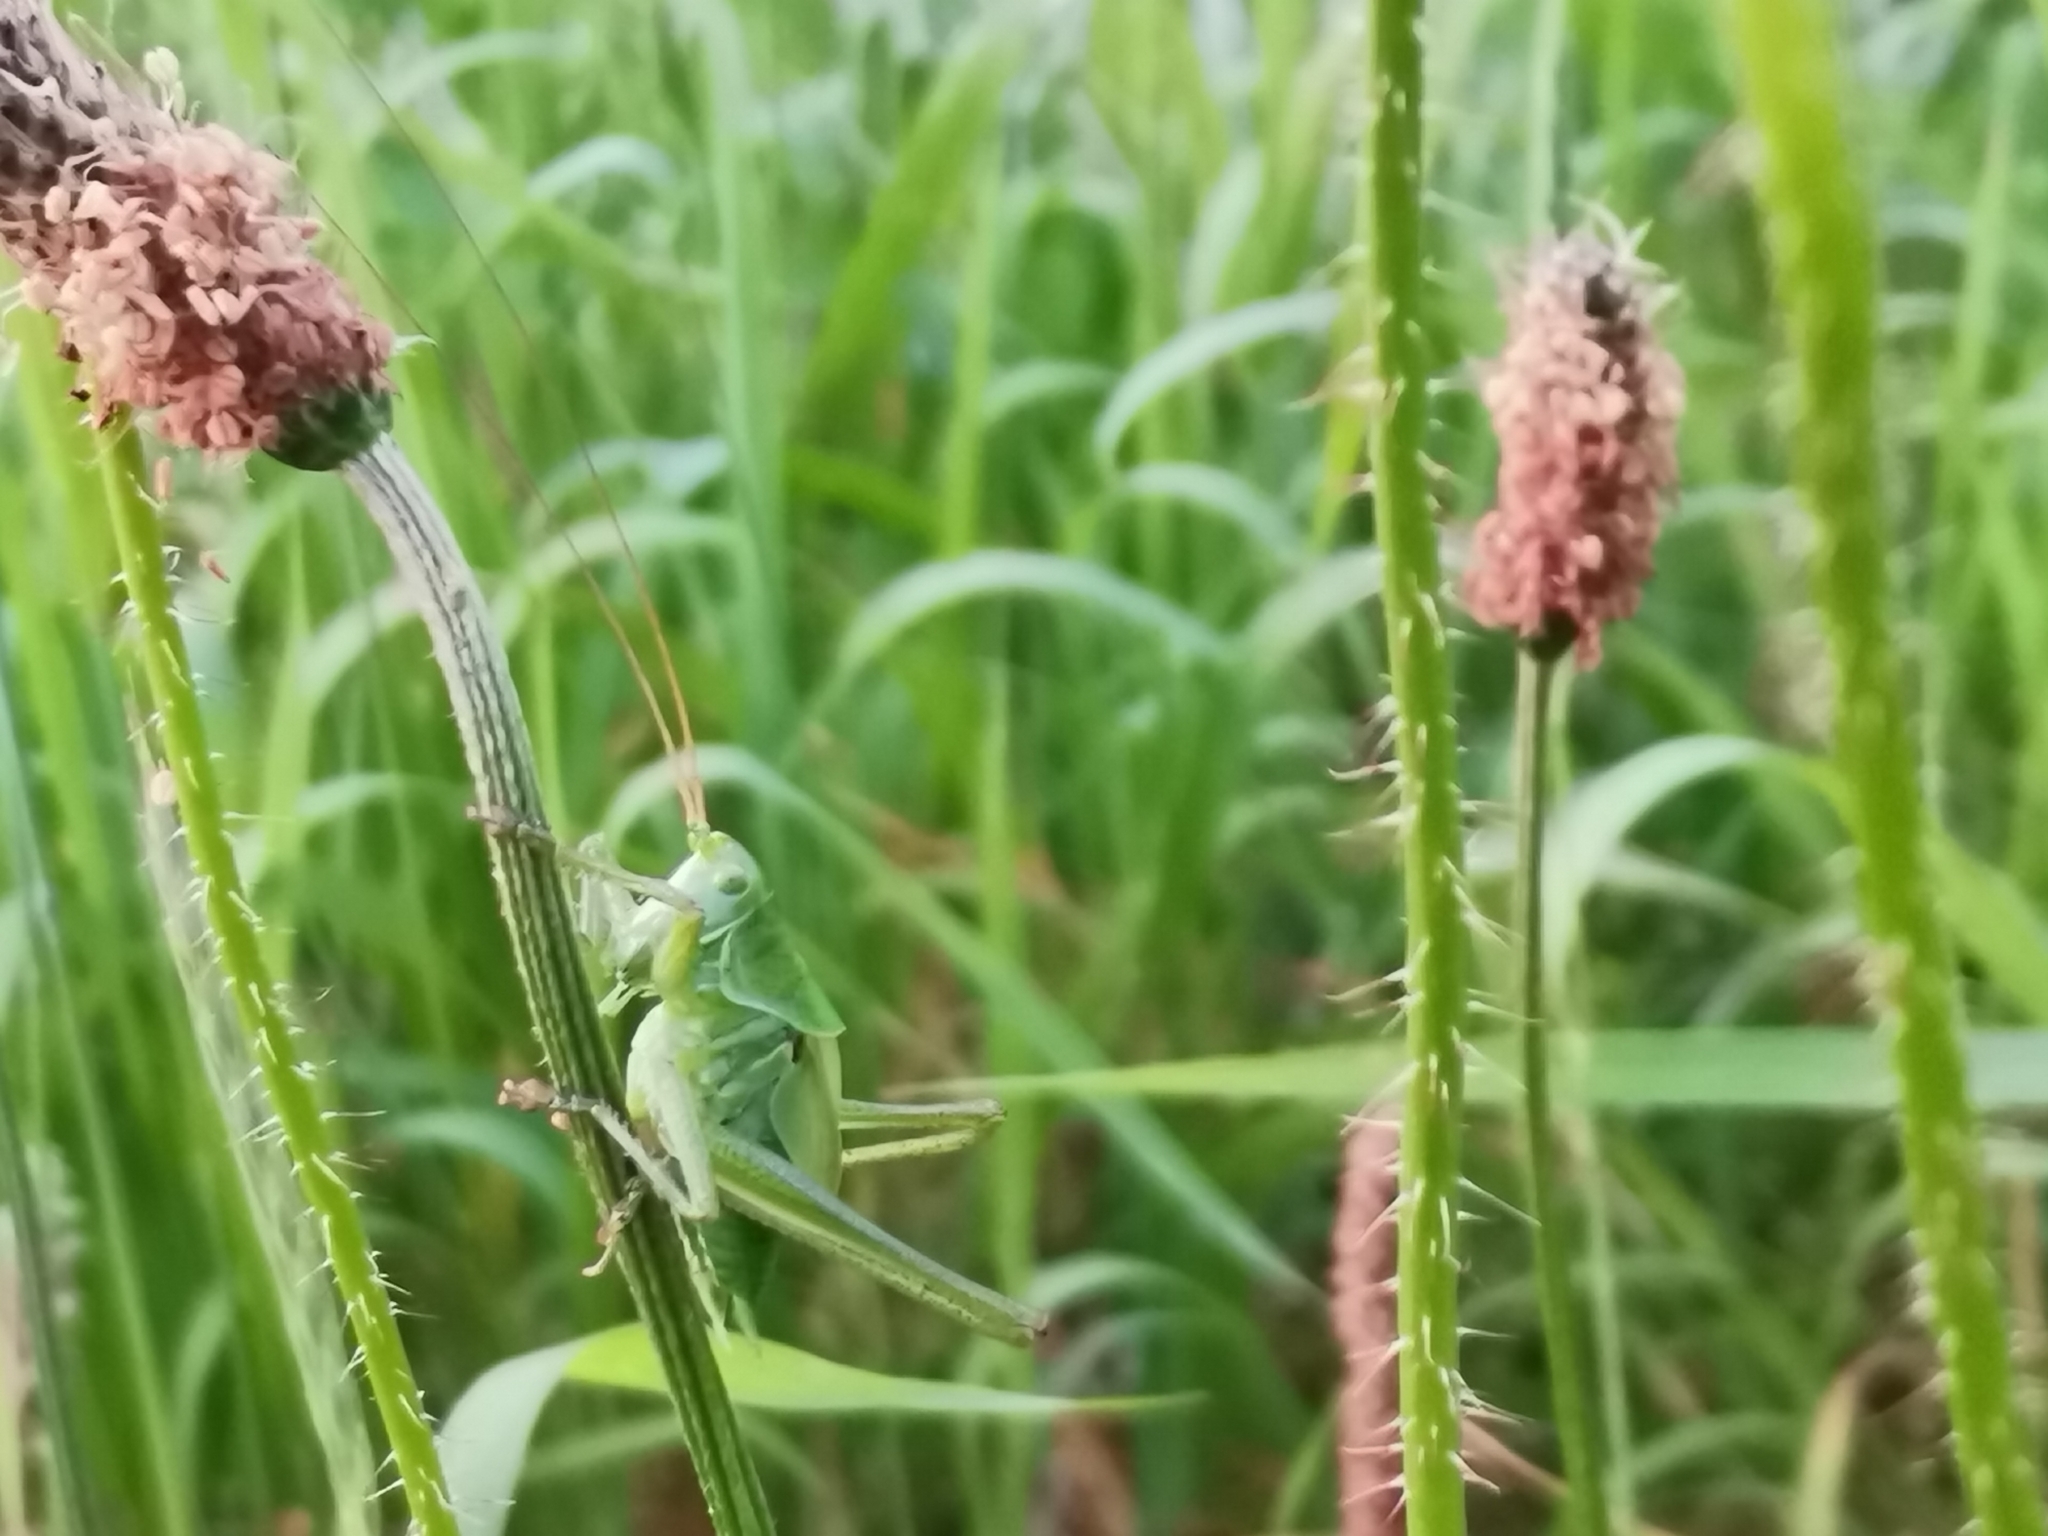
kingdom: Animalia
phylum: Arthropoda
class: Insecta
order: Orthoptera
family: Tettigoniidae
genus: Tettigonia
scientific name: Tettigonia viridissima
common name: Great green bush-cricket
